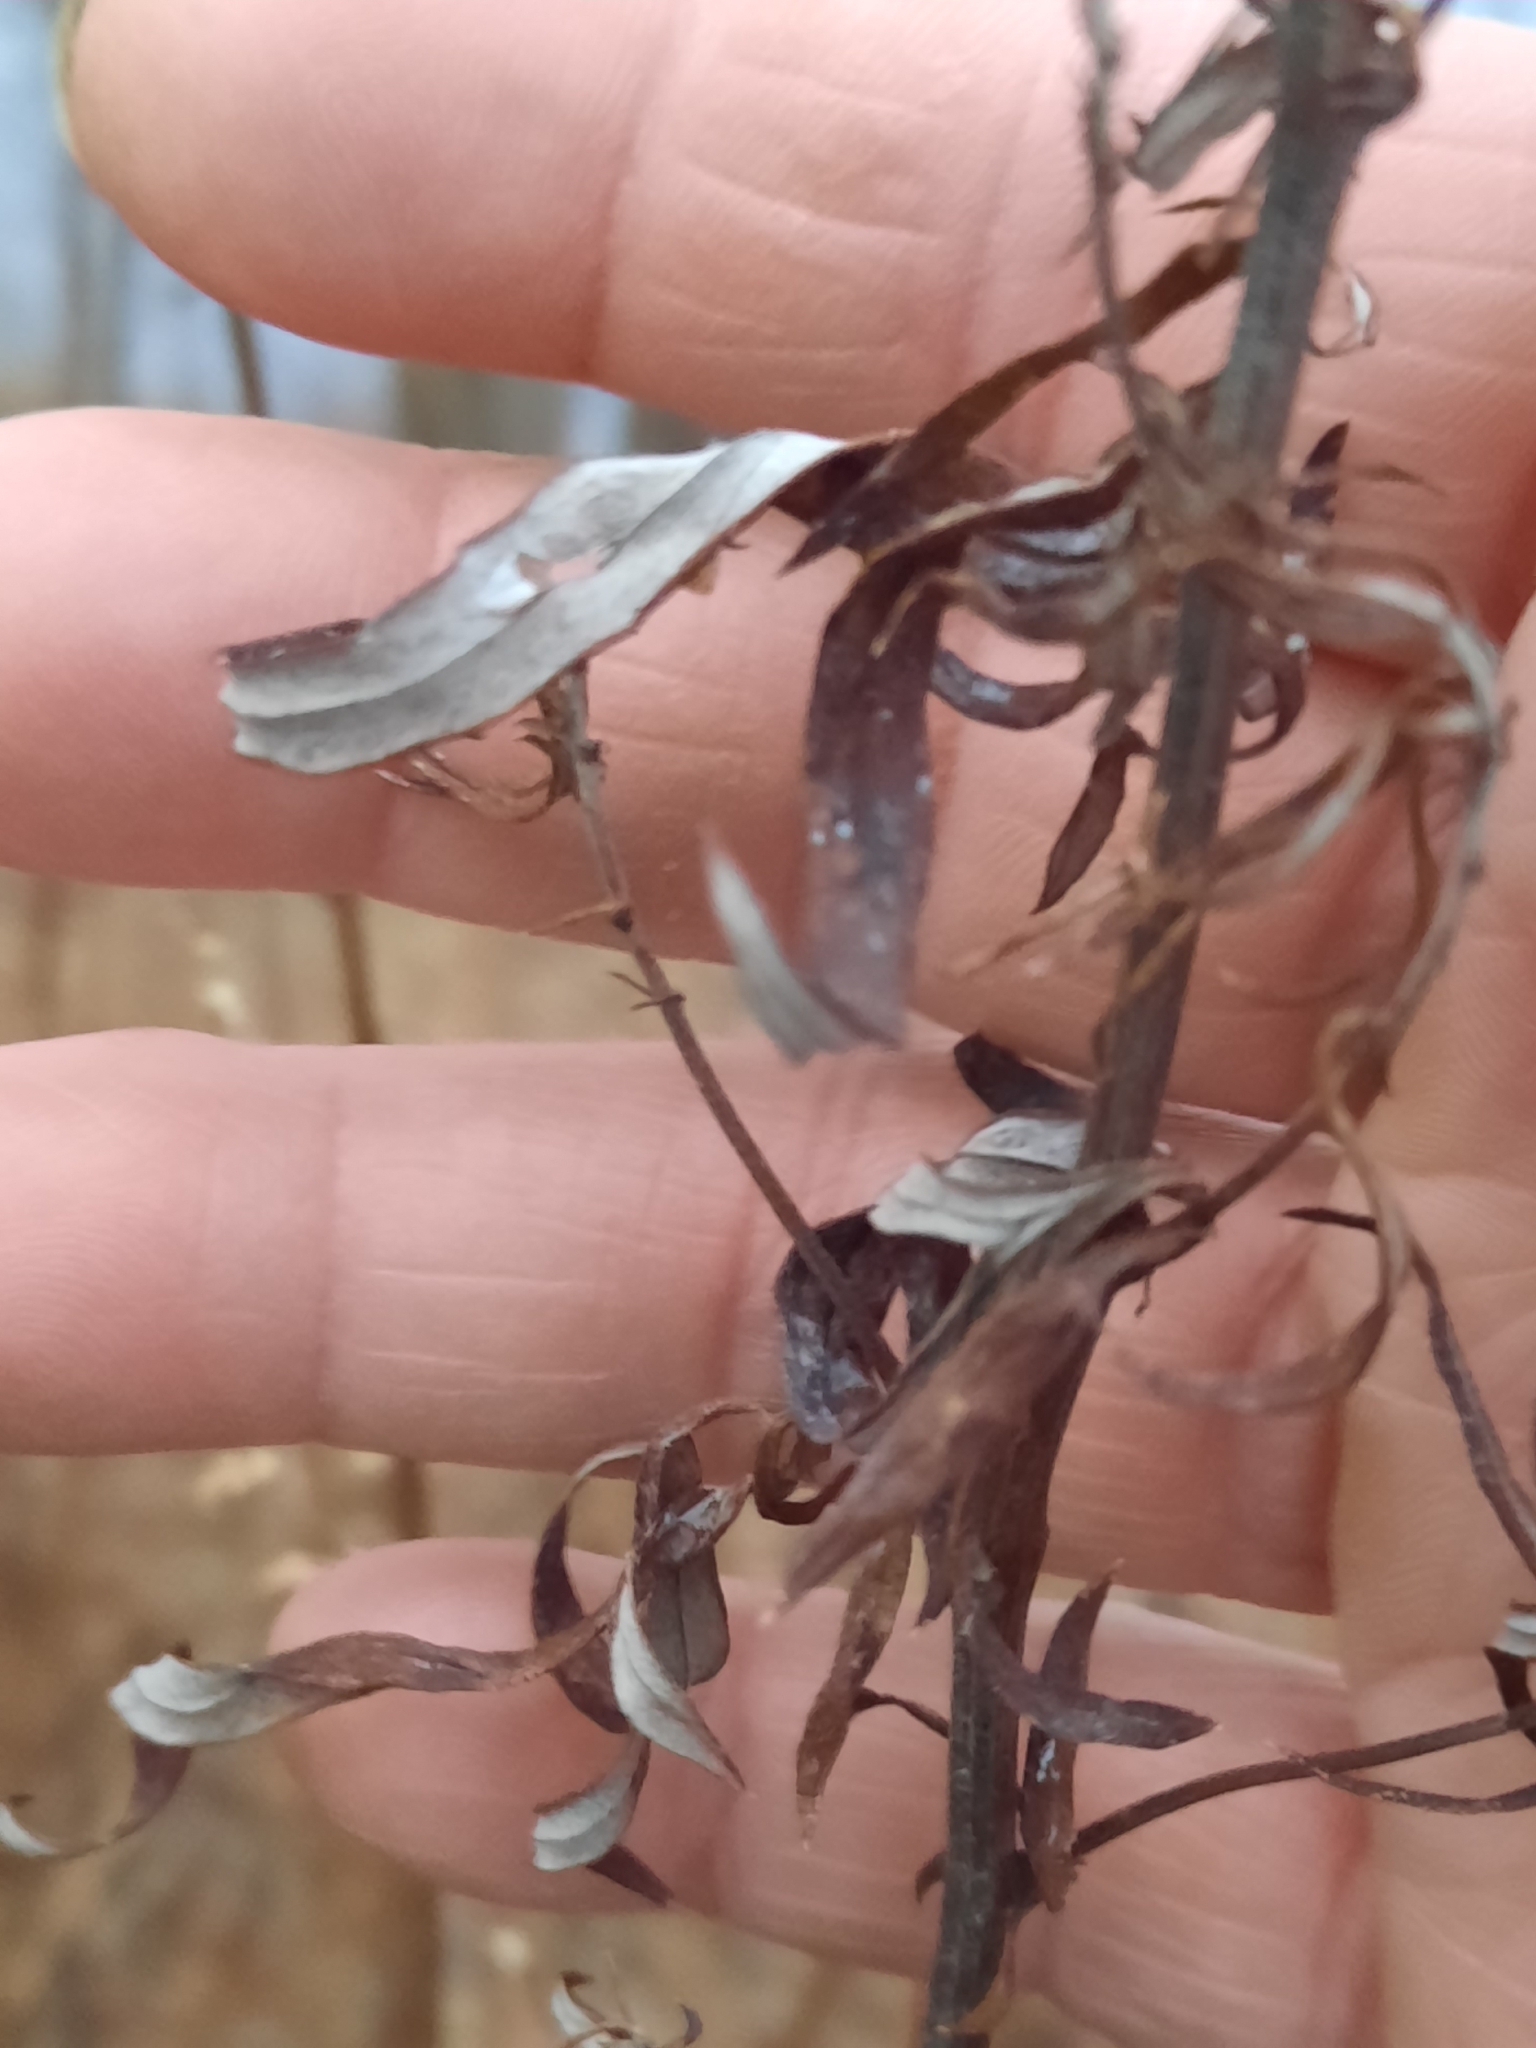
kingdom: Plantae
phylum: Tracheophyta
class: Magnoliopsida
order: Asterales
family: Asteraceae
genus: Artemisia
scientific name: Artemisia vulgaris
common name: Mugwort
